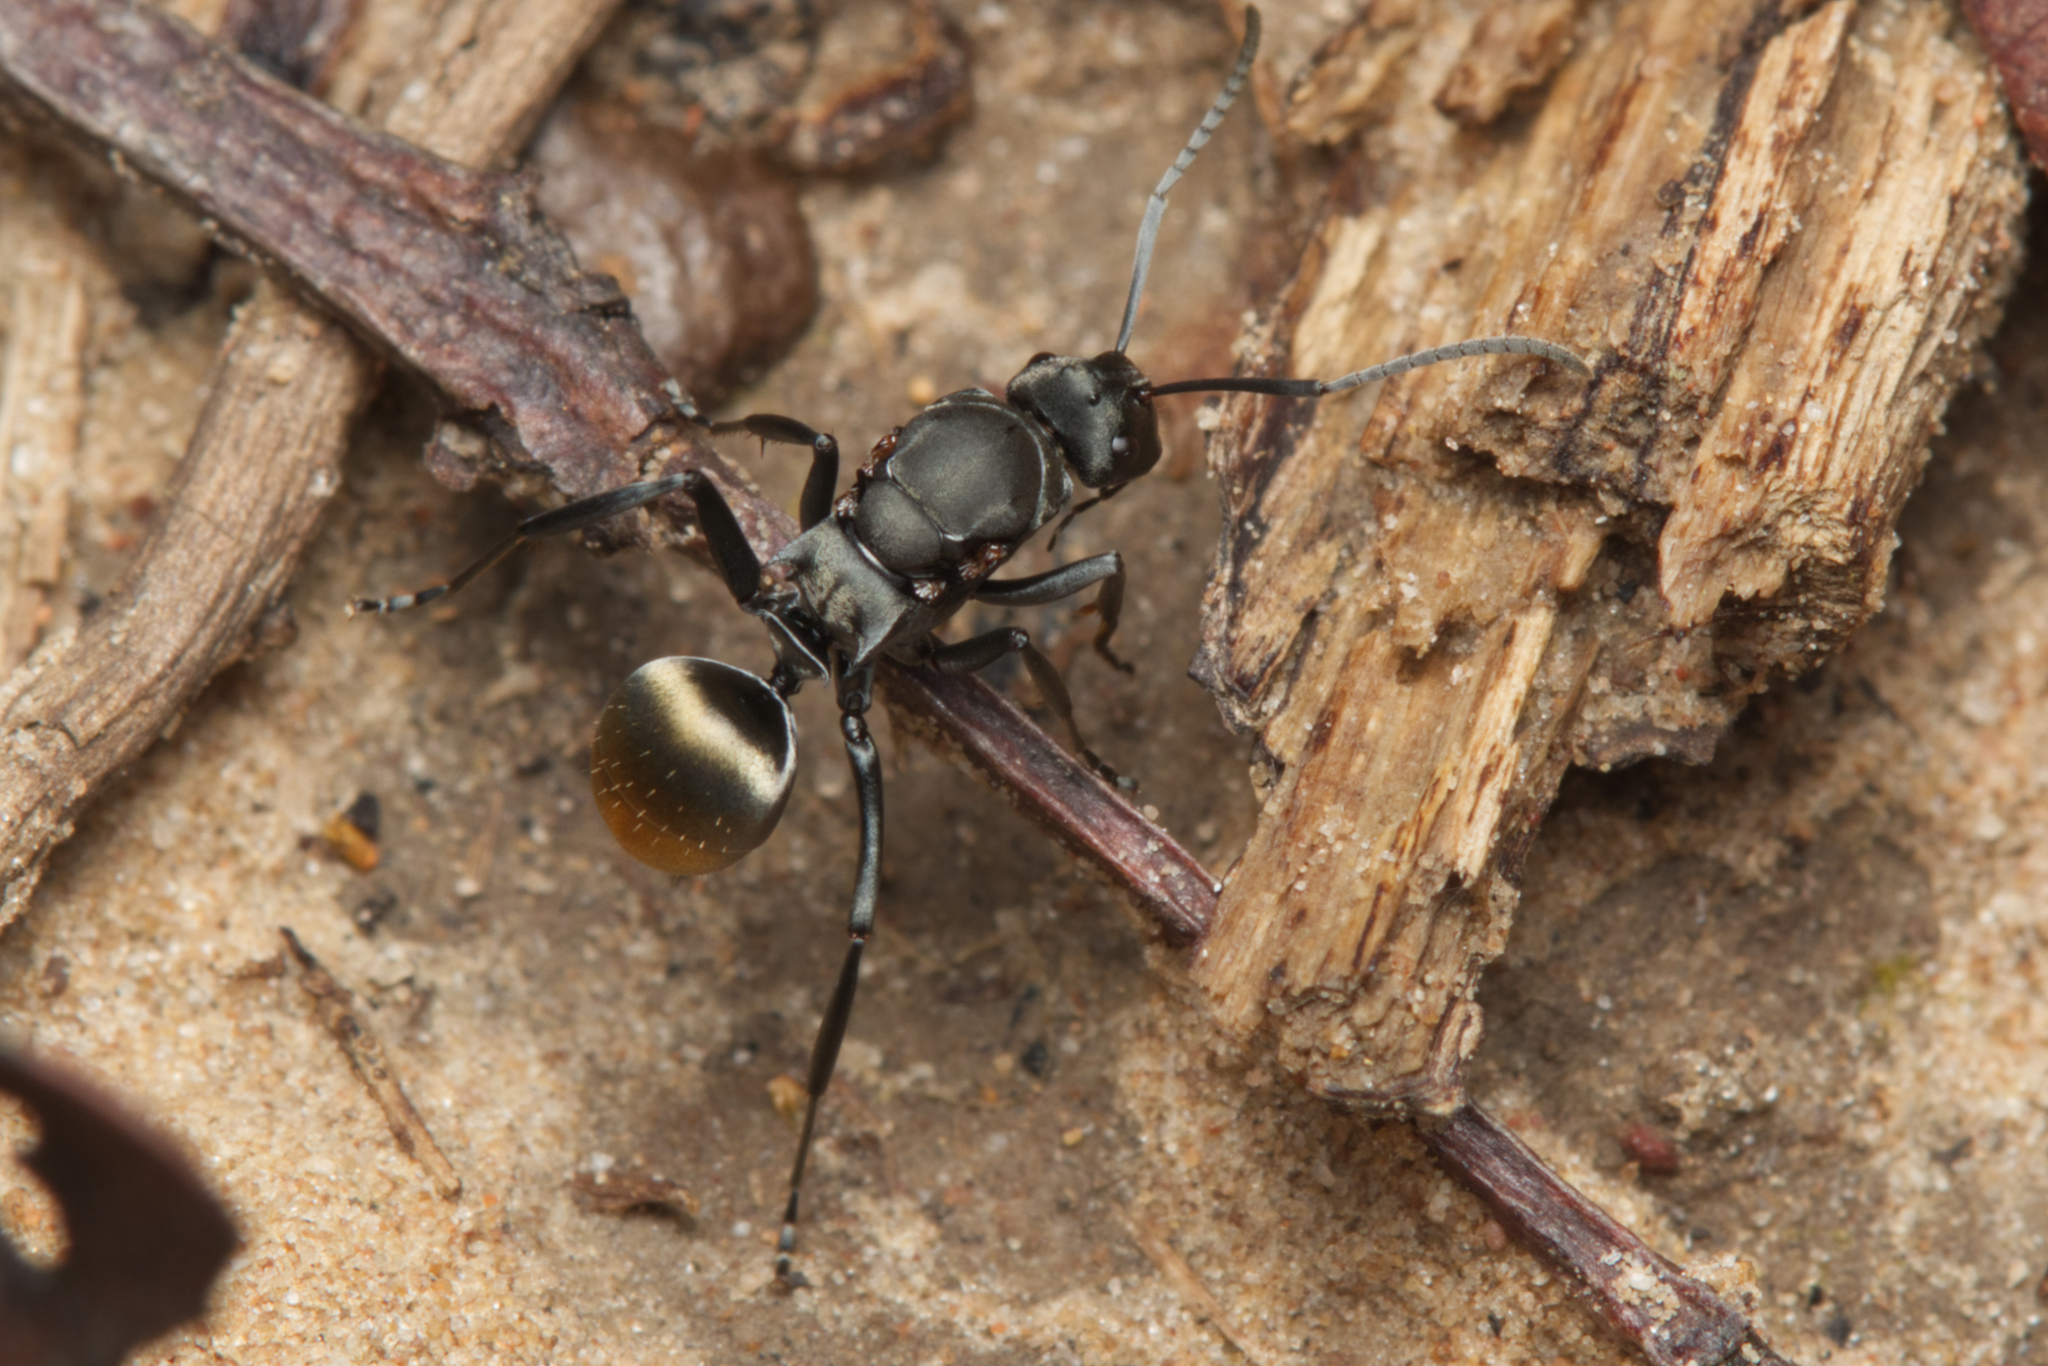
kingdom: Animalia
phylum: Arthropoda
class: Insecta
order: Hymenoptera
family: Formicidae
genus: Polyrhachis
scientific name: Polyrhachis tubifera
